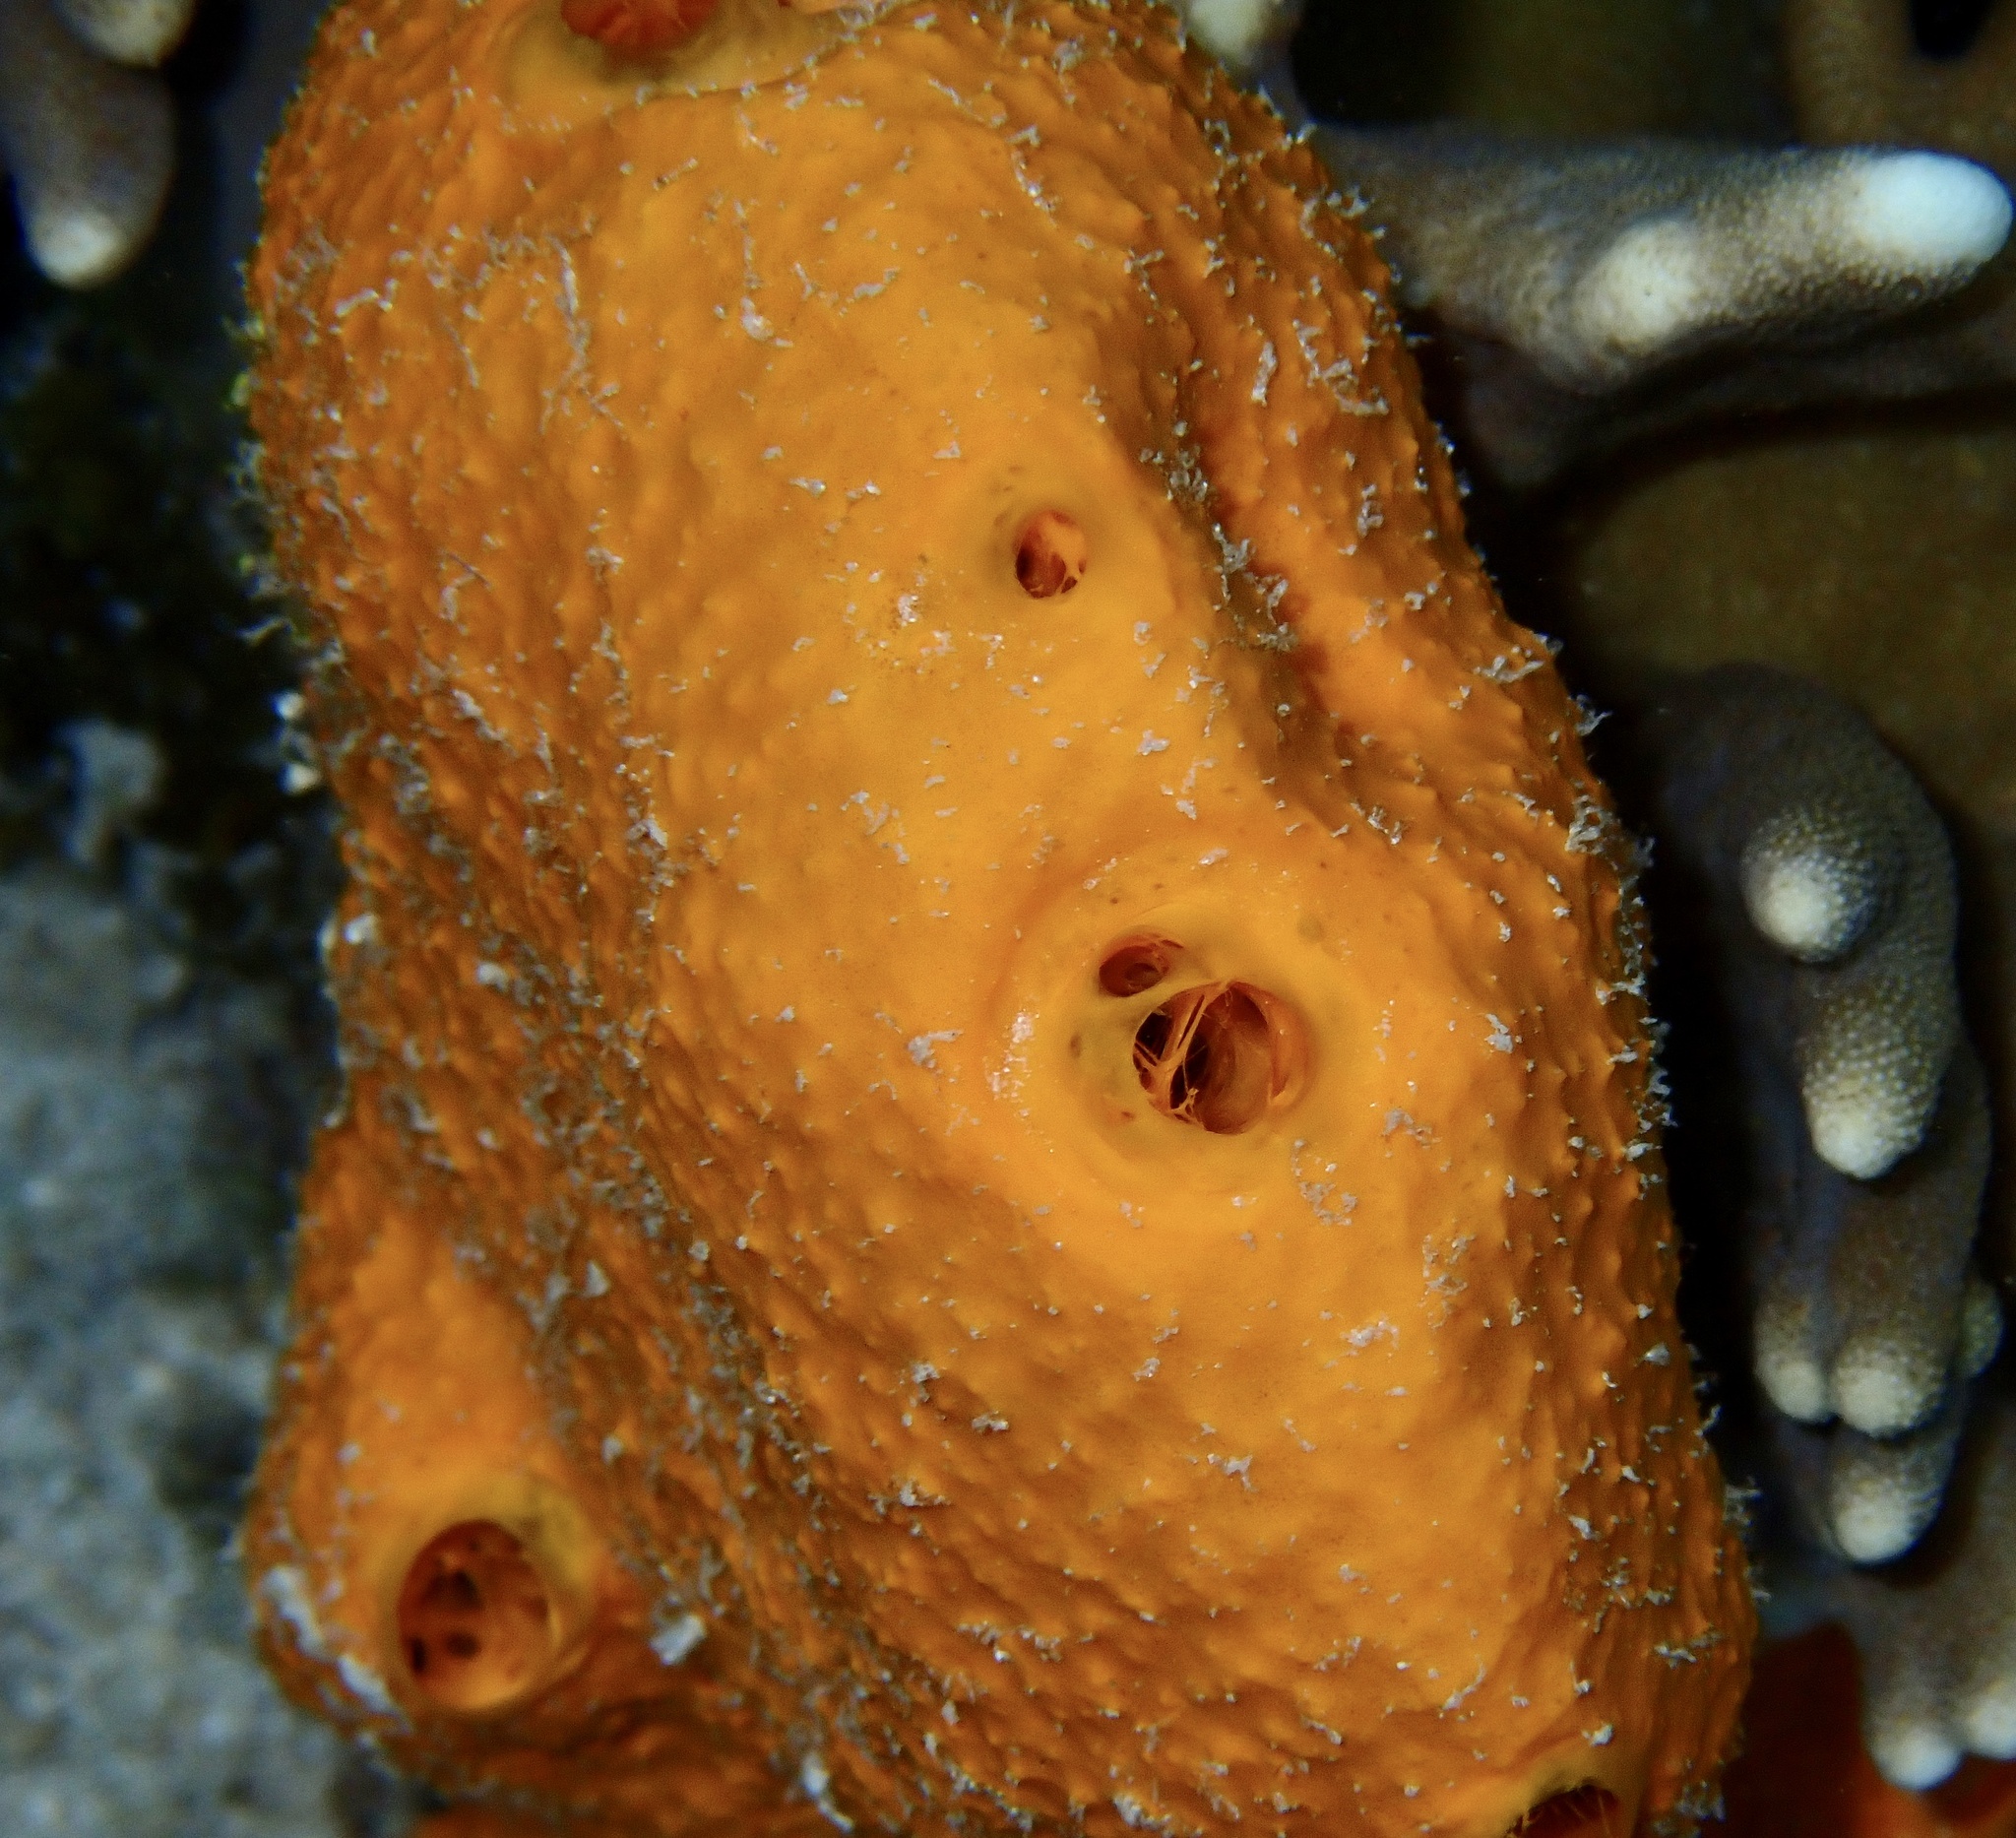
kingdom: Animalia
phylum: Porifera
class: Demospongiae
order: Scopalinida
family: Scopalinidae
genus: Stylissa
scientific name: Stylissa massa
